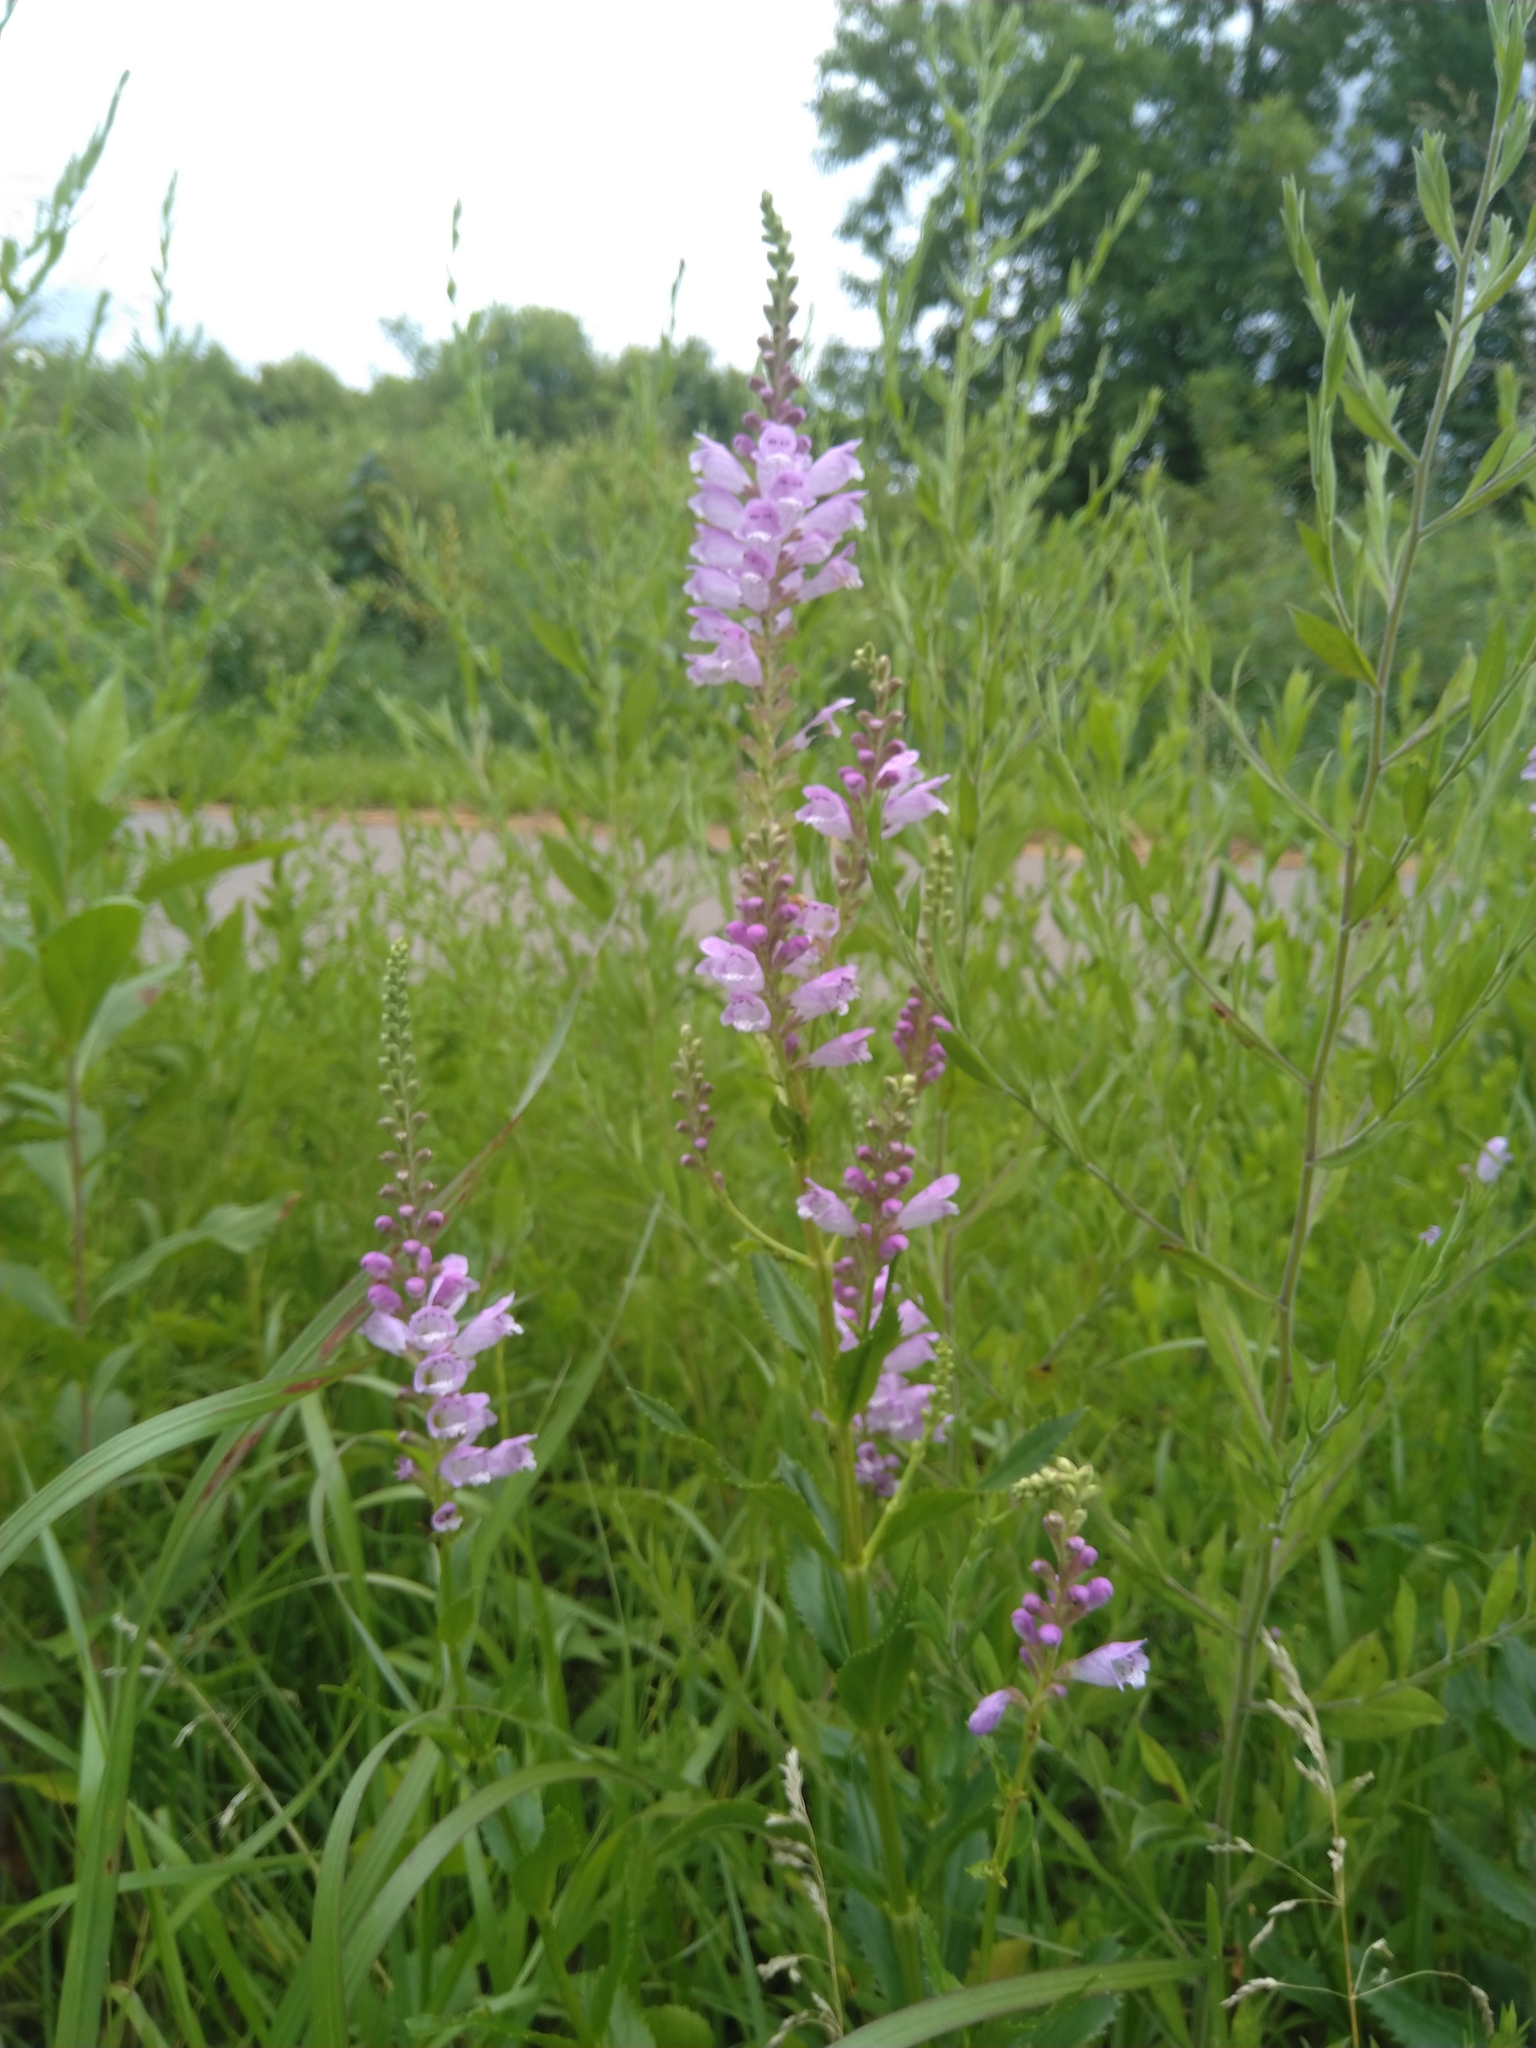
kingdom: Plantae
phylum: Tracheophyta
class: Magnoliopsida
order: Lamiales
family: Lamiaceae
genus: Physostegia
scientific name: Physostegia virginiana
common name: Obedient-plant
